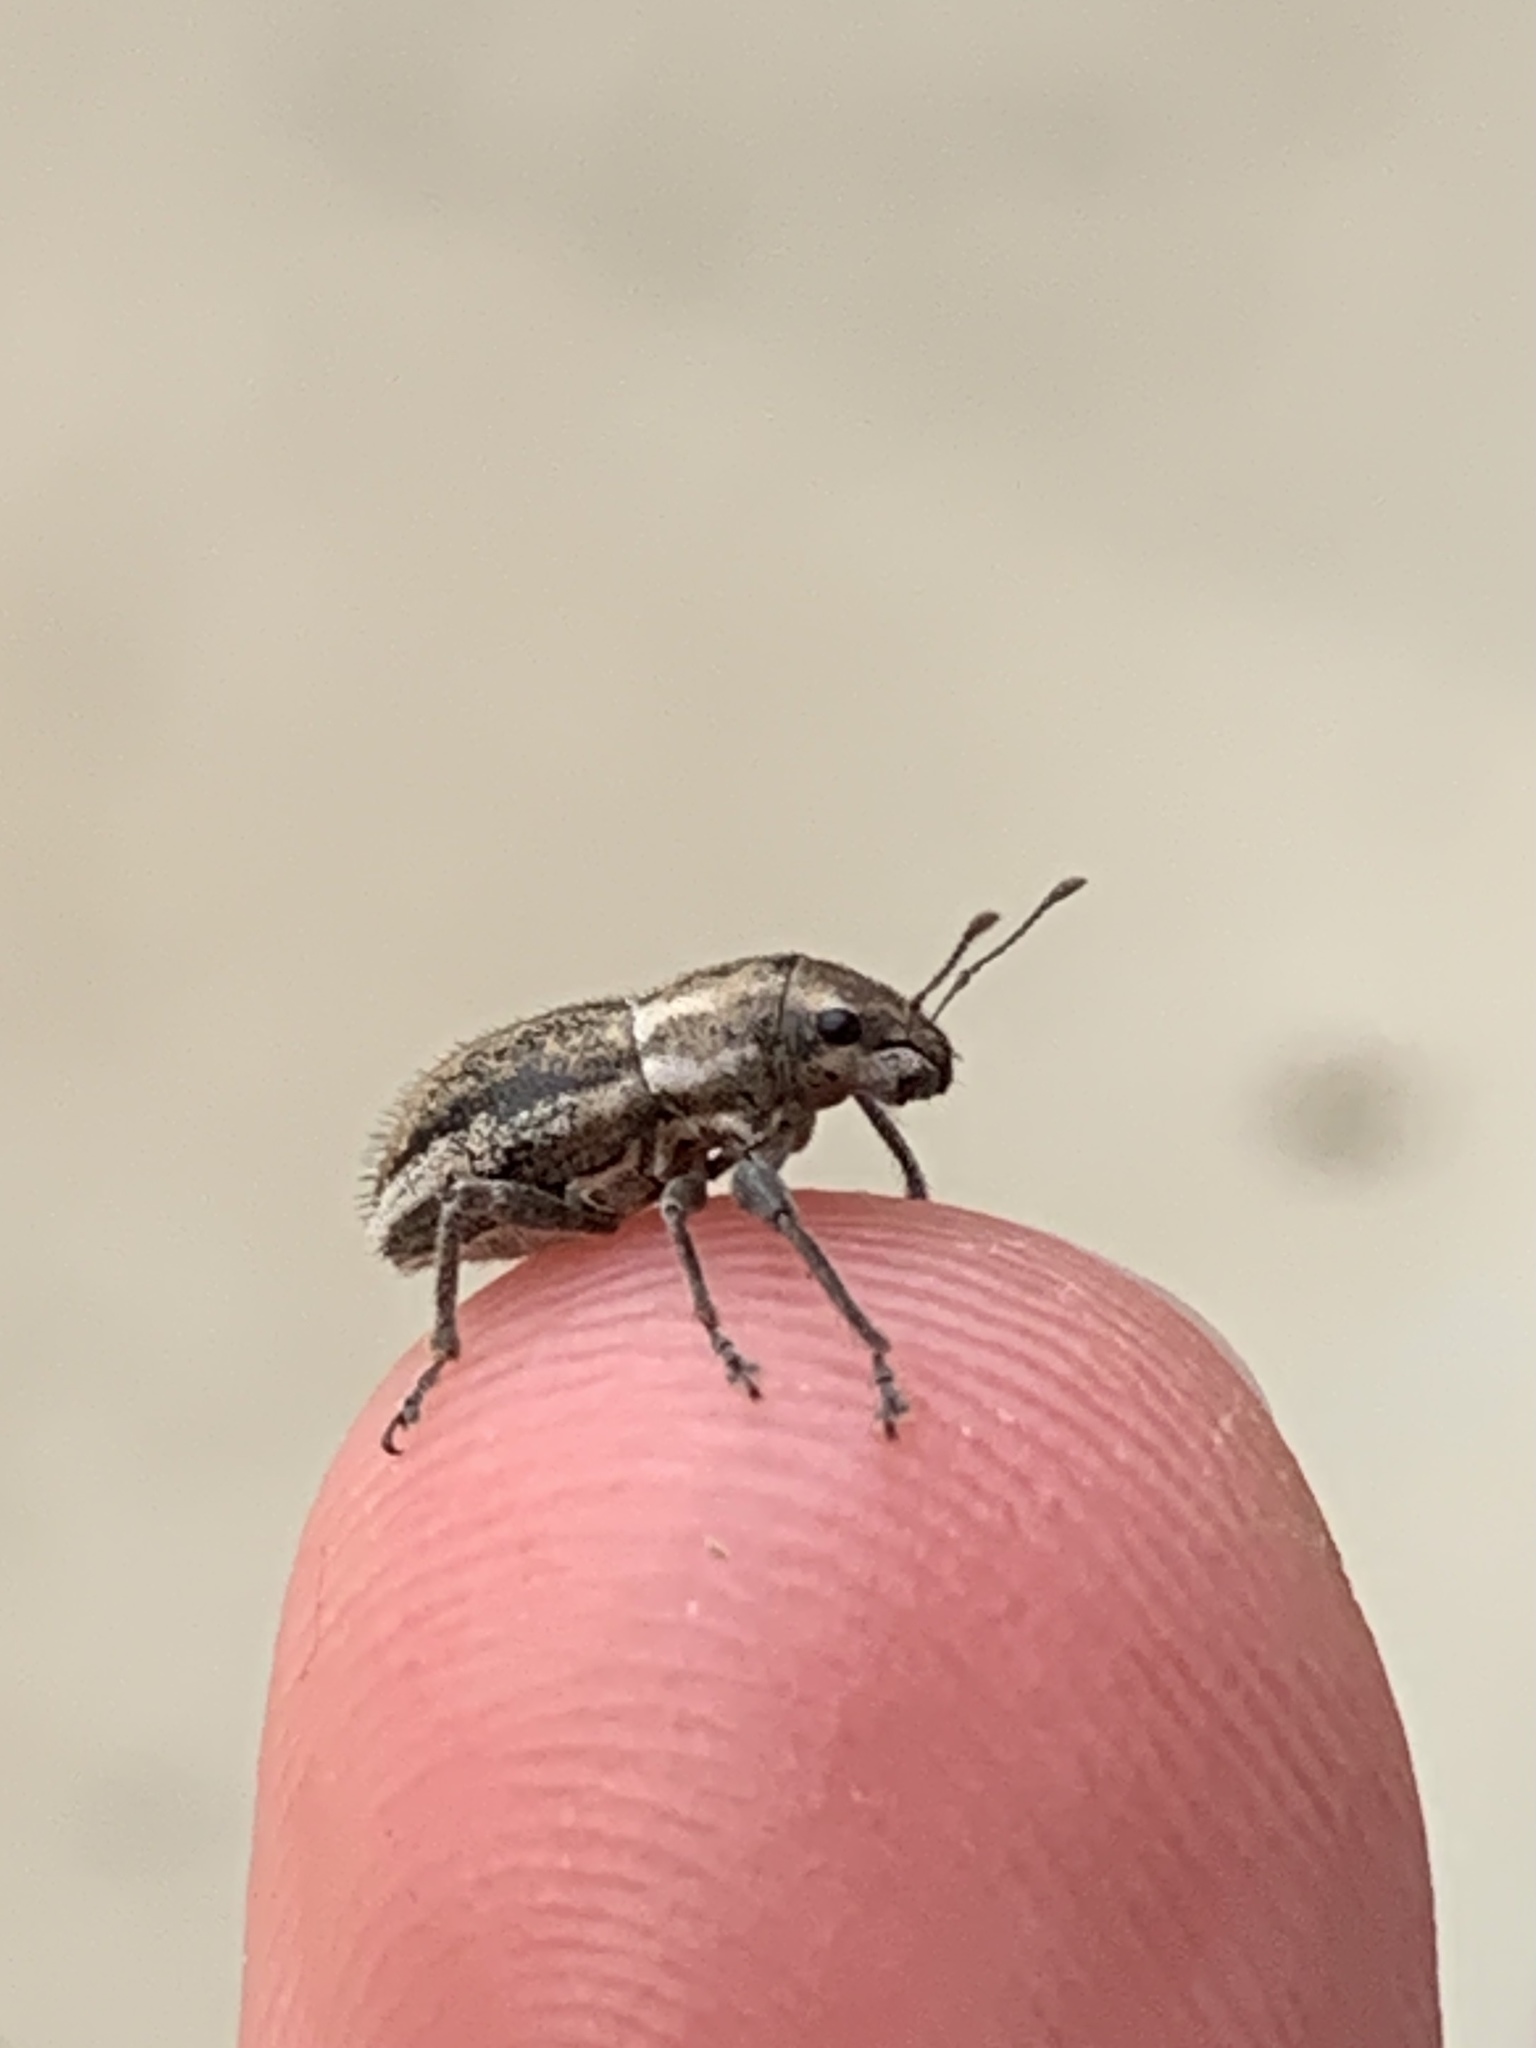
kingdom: Animalia
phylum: Arthropoda
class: Insecta
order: Coleoptera
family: Curculionidae
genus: Naupactus
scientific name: Naupactus peregrinus
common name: Whitefringed beetle
